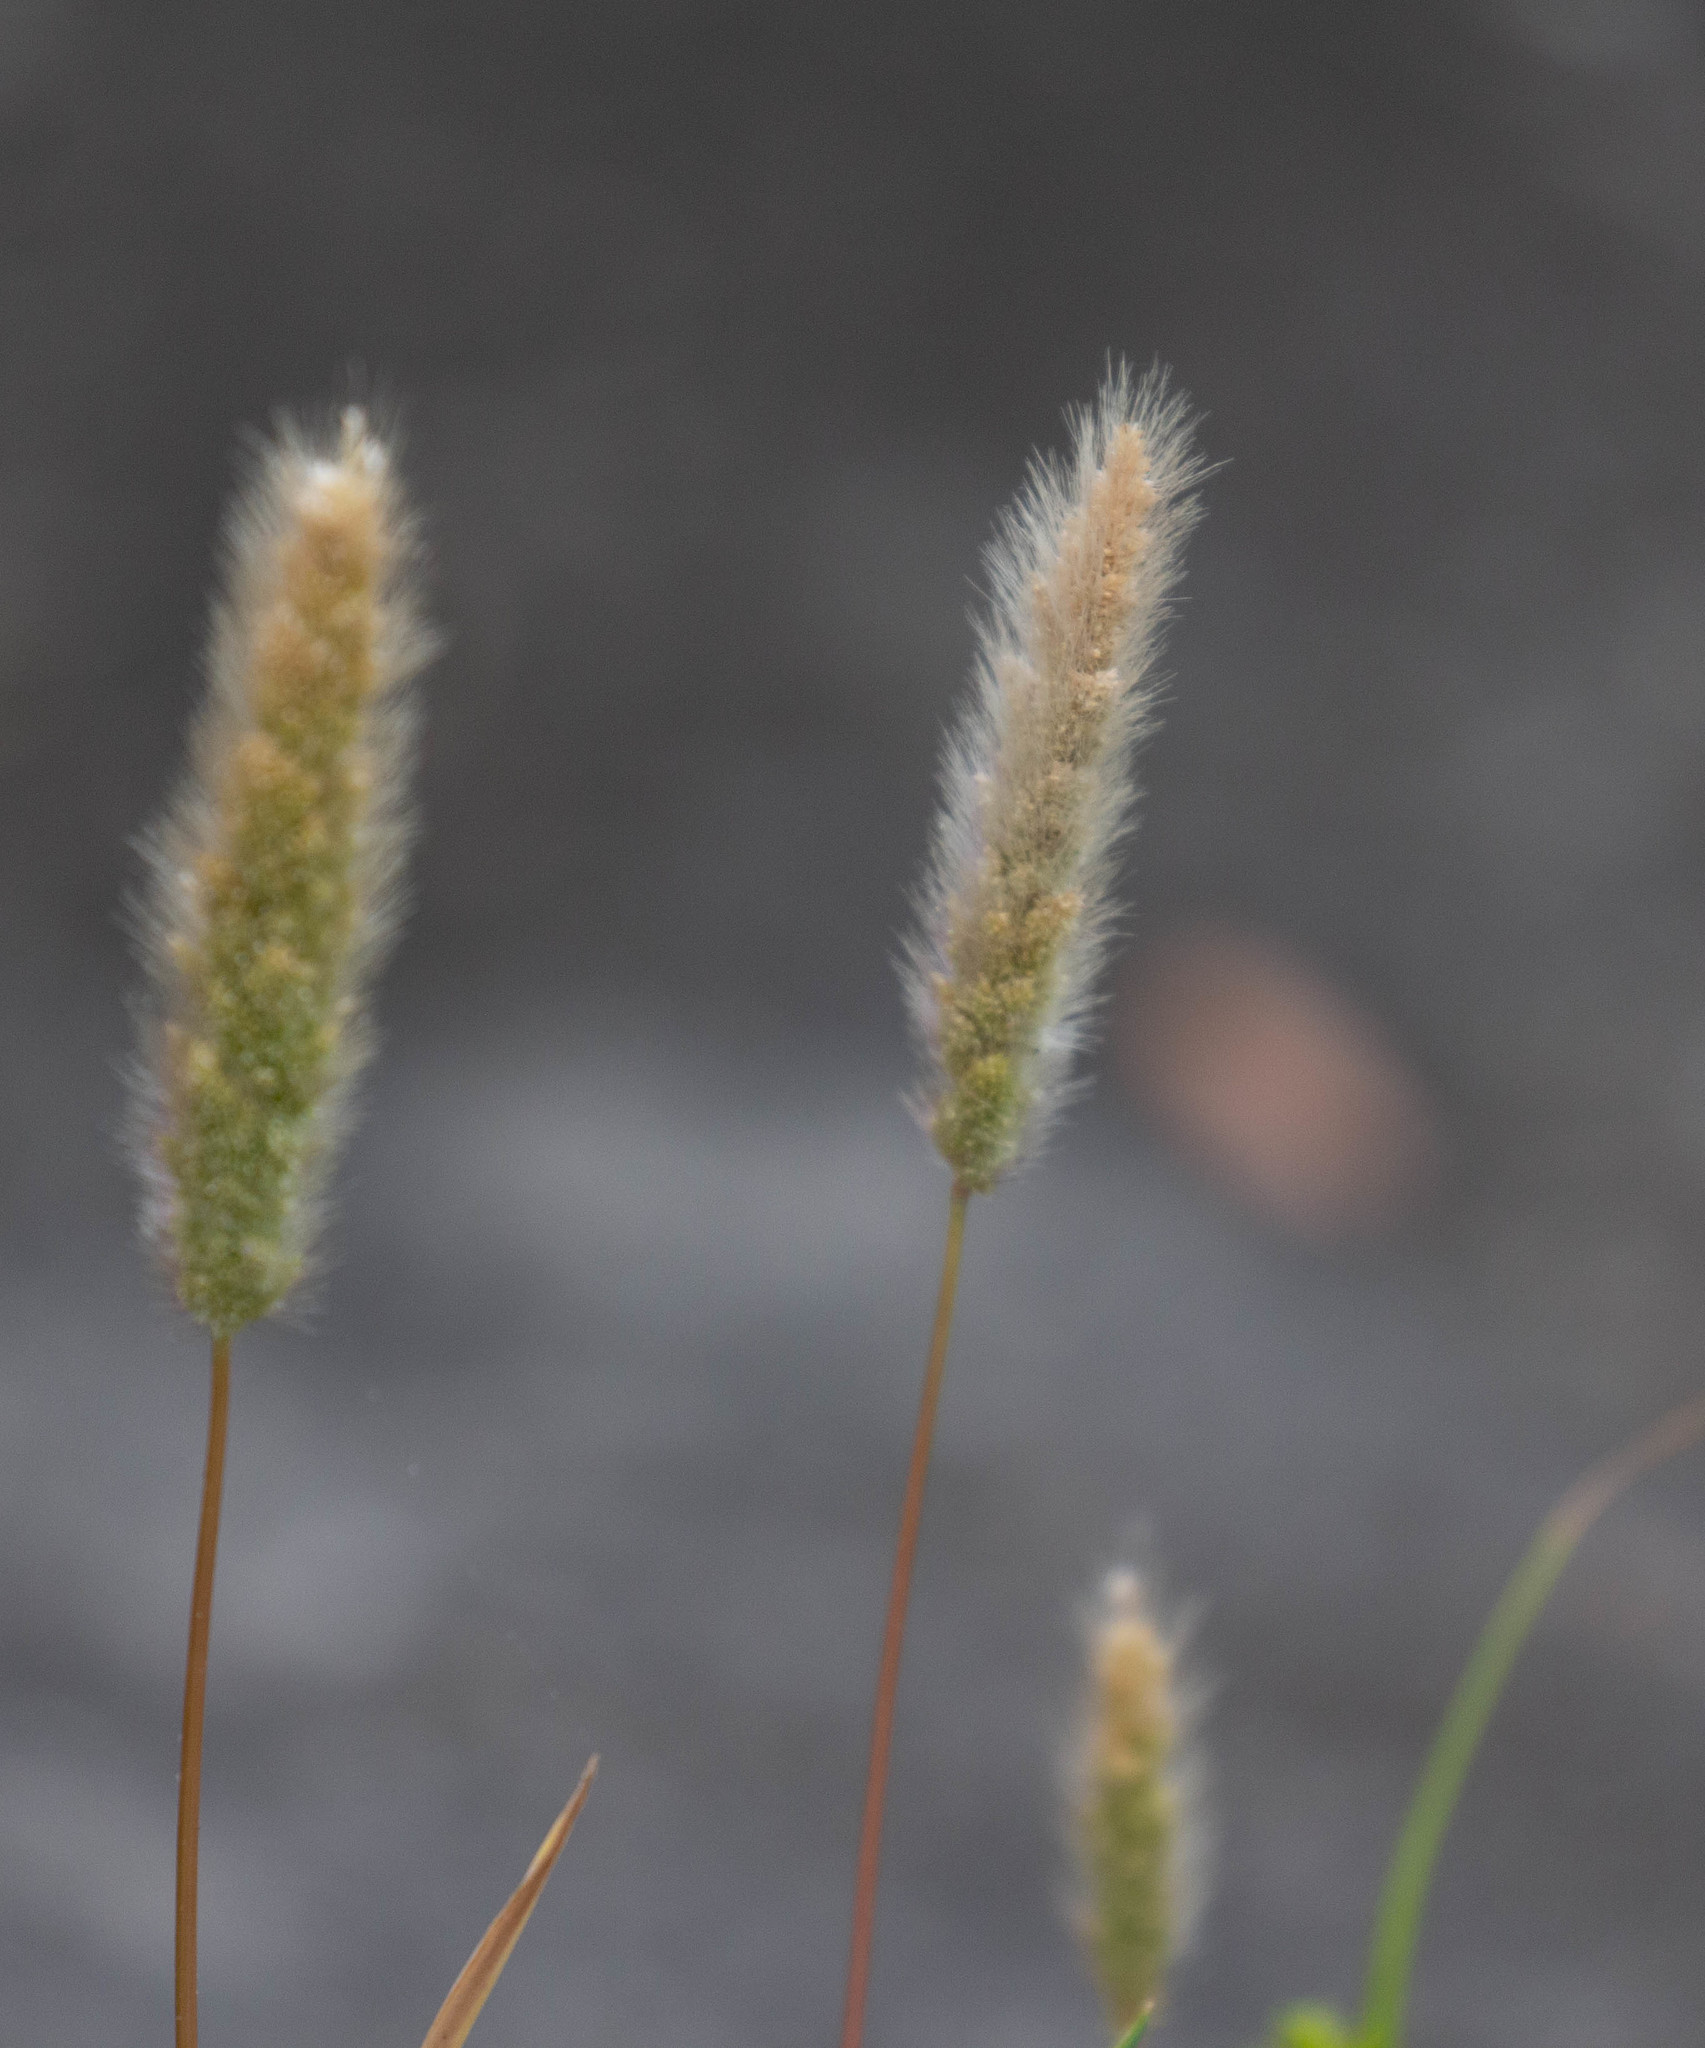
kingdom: Plantae
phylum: Tracheophyta
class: Liliopsida
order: Poales
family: Poaceae
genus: Polypogon
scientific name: Polypogon monspeliensis
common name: Annual rabbitsfoot grass
